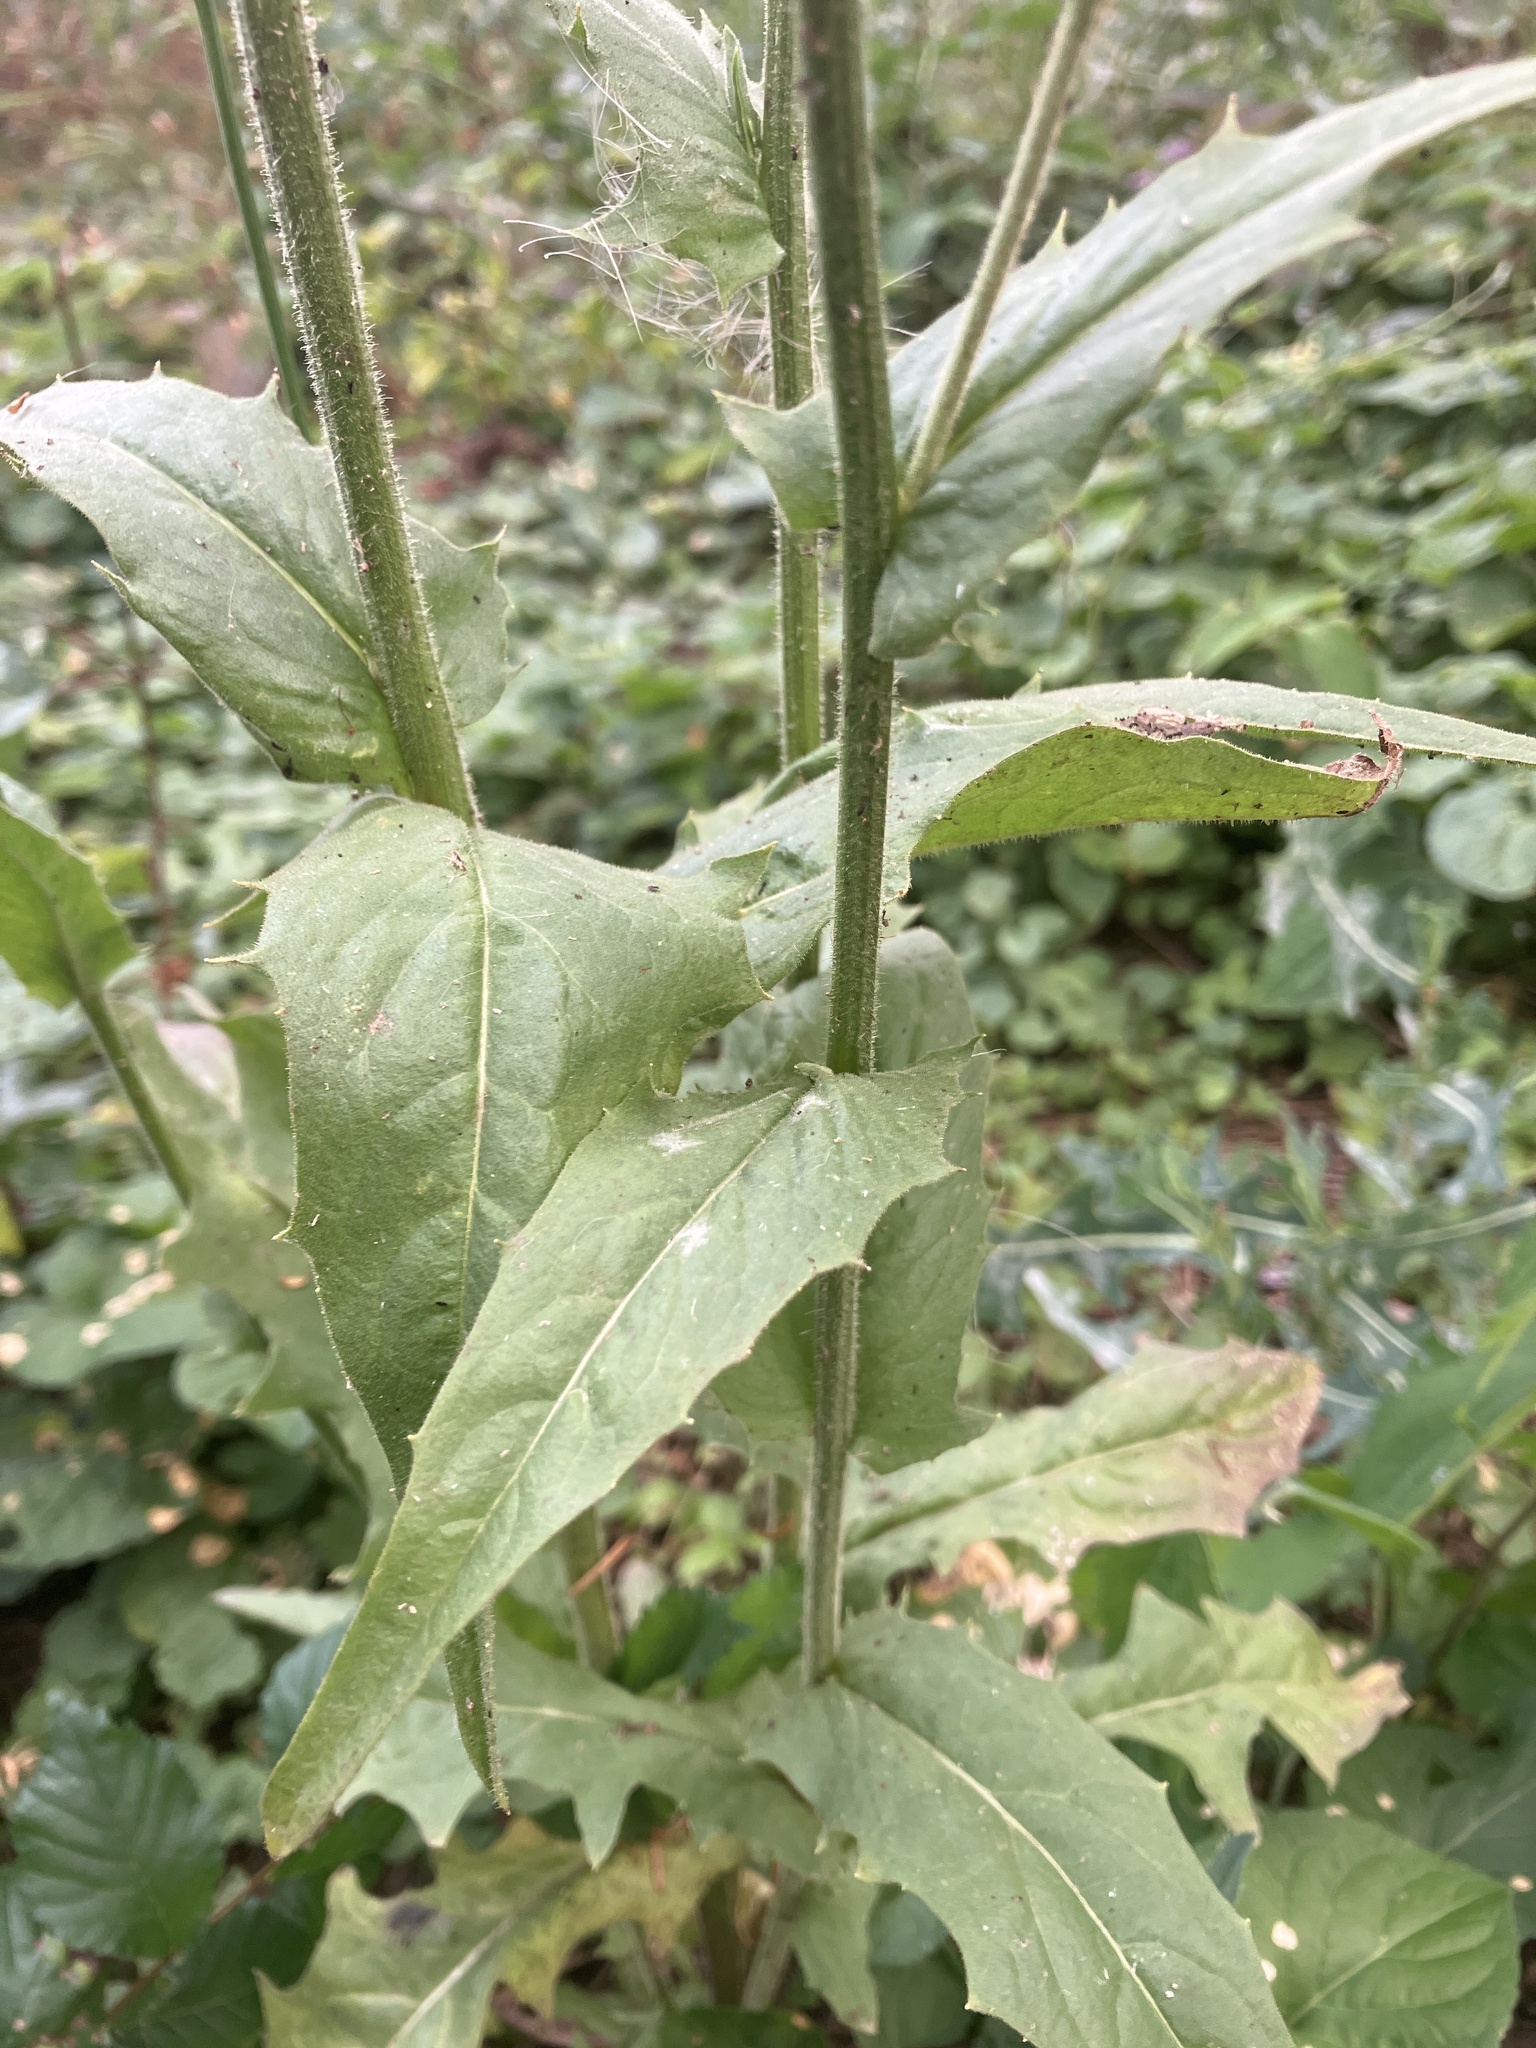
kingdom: Plantae
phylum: Tracheophyta
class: Magnoliopsida
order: Asterales
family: Asteraceae
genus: Crepis
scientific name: Crepis pulchra
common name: Hawk's-beard
